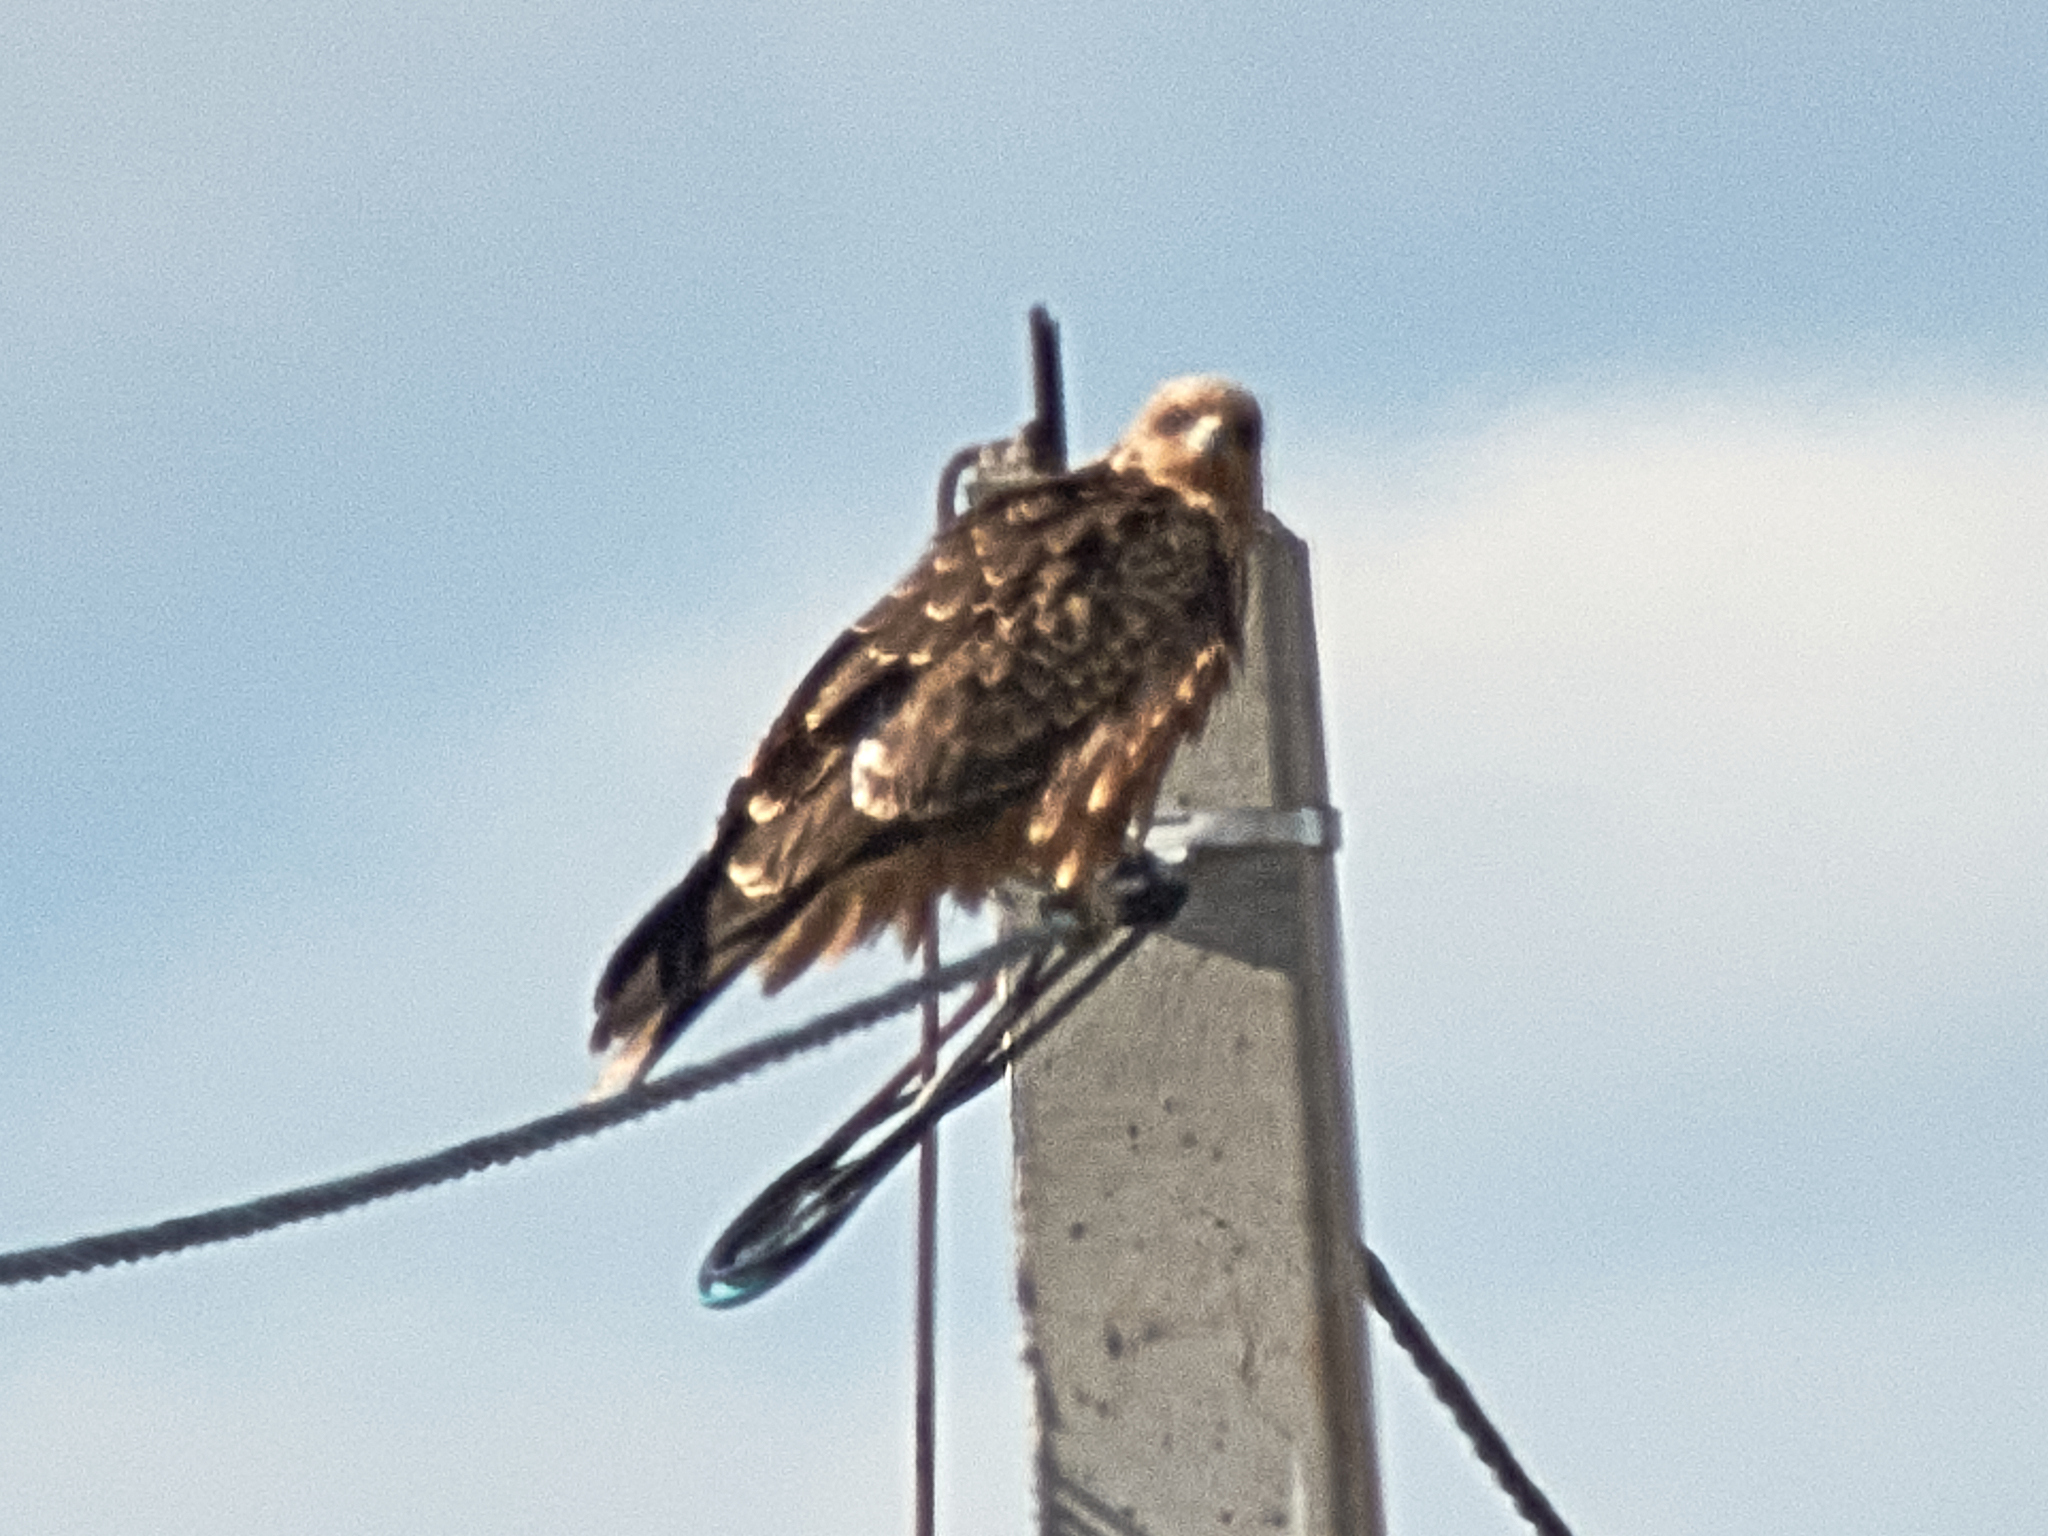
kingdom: Animalia
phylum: Chordata
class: Aves
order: Accipitriformes
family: Accipitridae
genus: Milvus
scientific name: Milvus migrans
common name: Black kite
